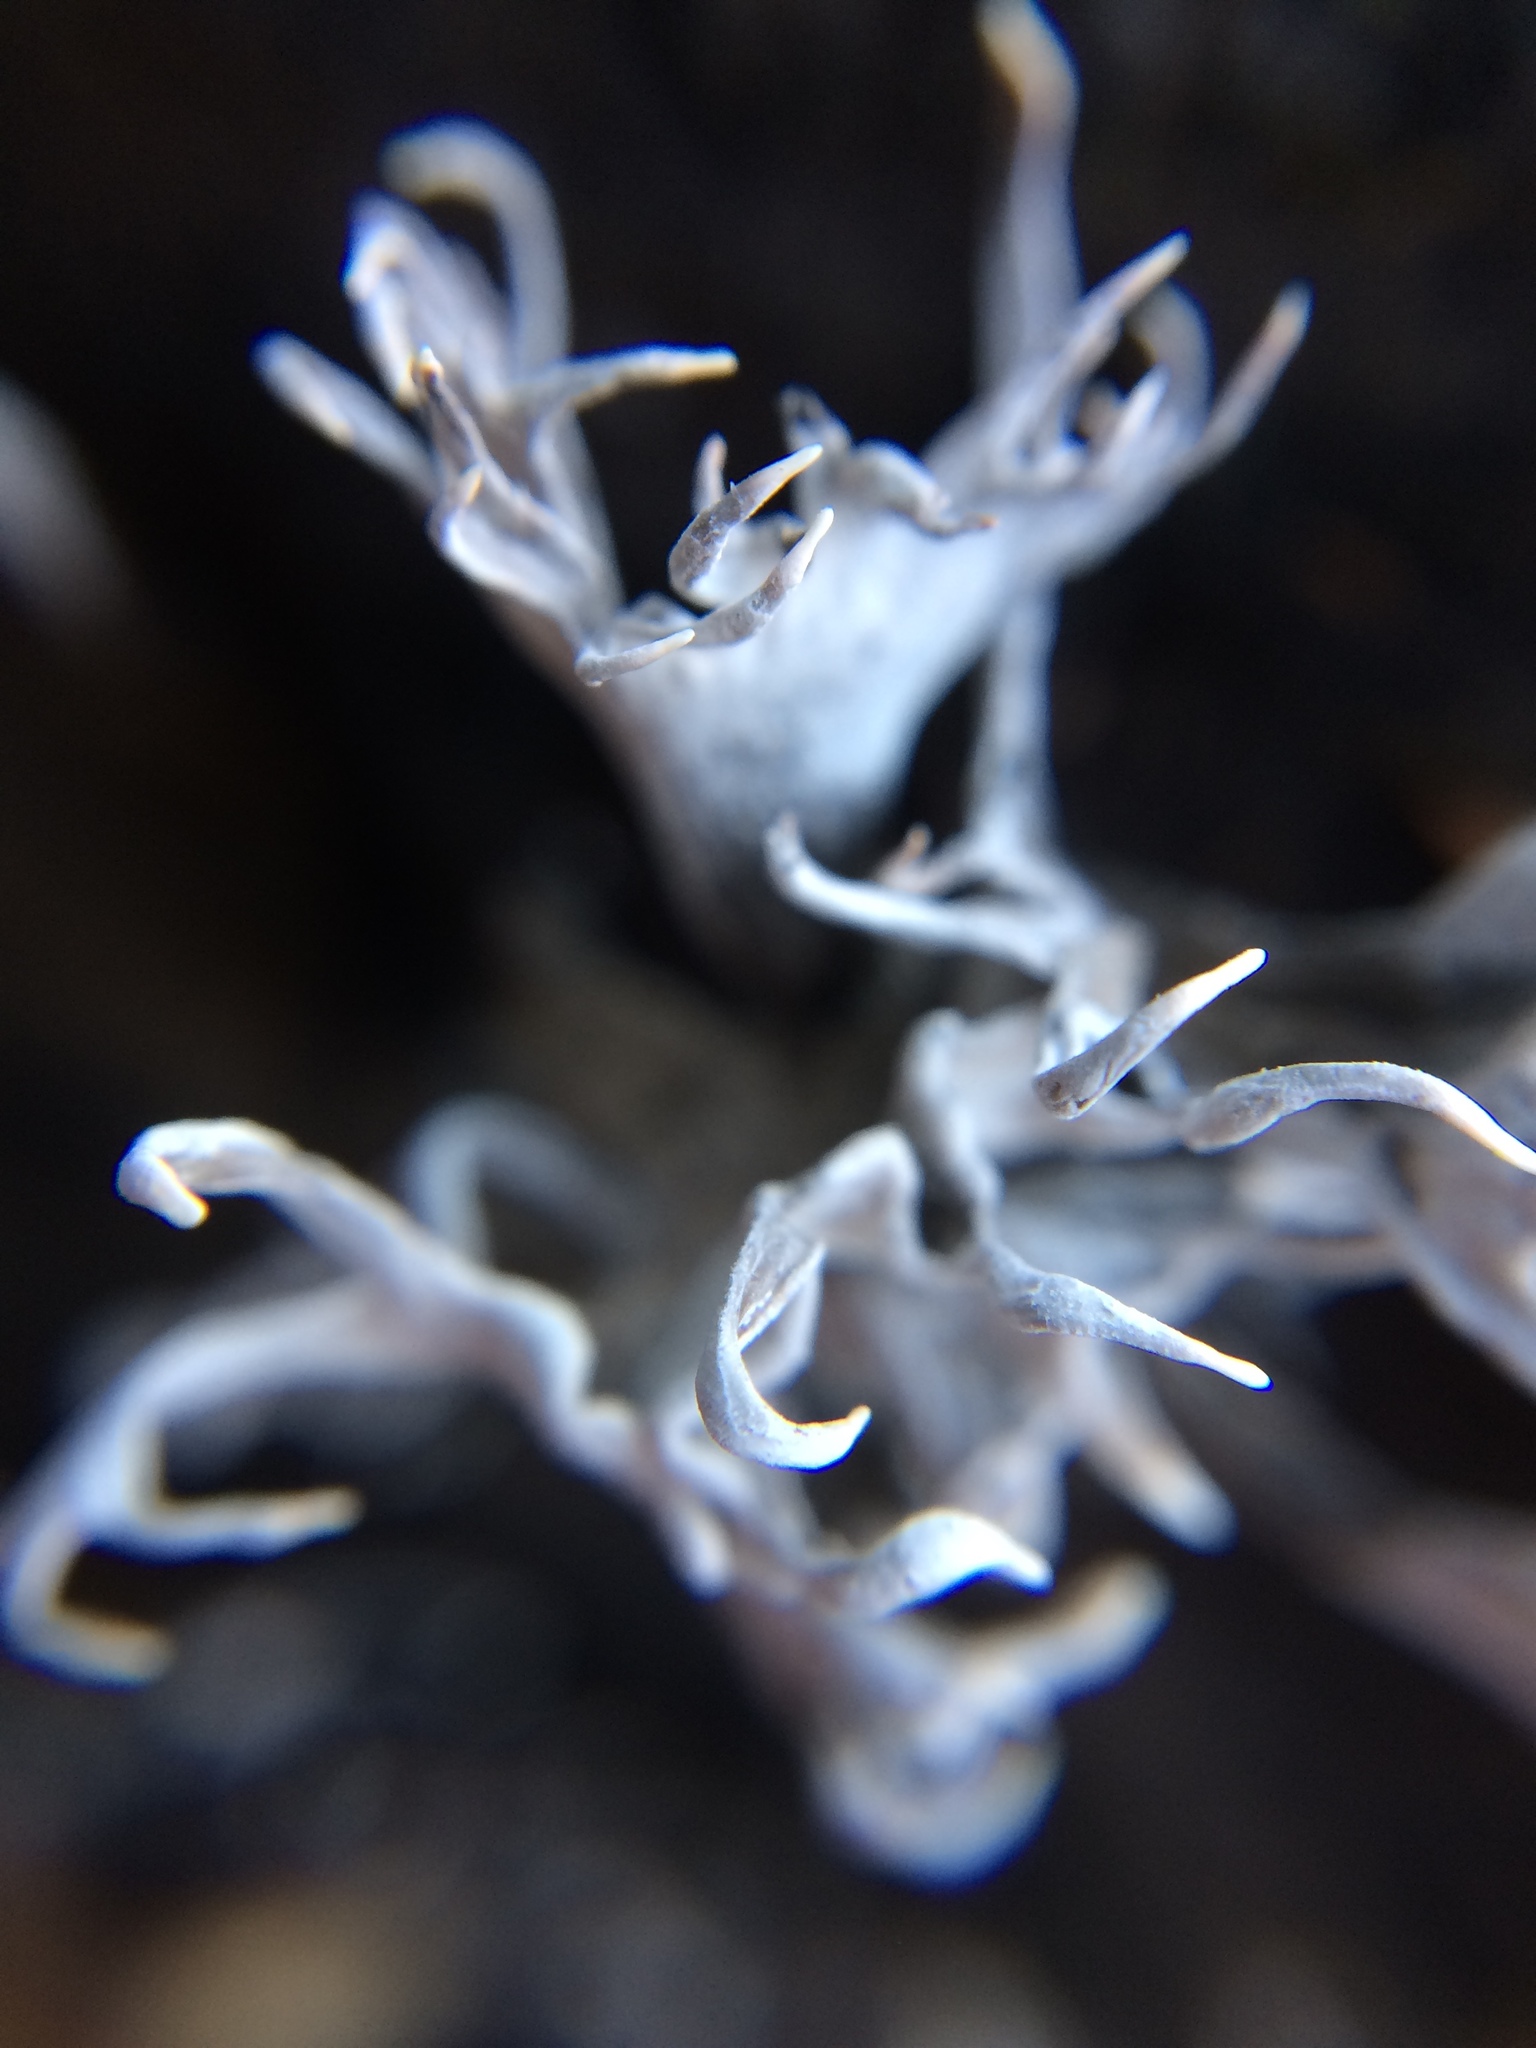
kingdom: Fungi
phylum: Ascomycota
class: Sordariomycetes
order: Xylariales
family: Xylariaceae
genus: Xylaria
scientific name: Xylaria hypoxylon
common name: Candle-snuff fungus
